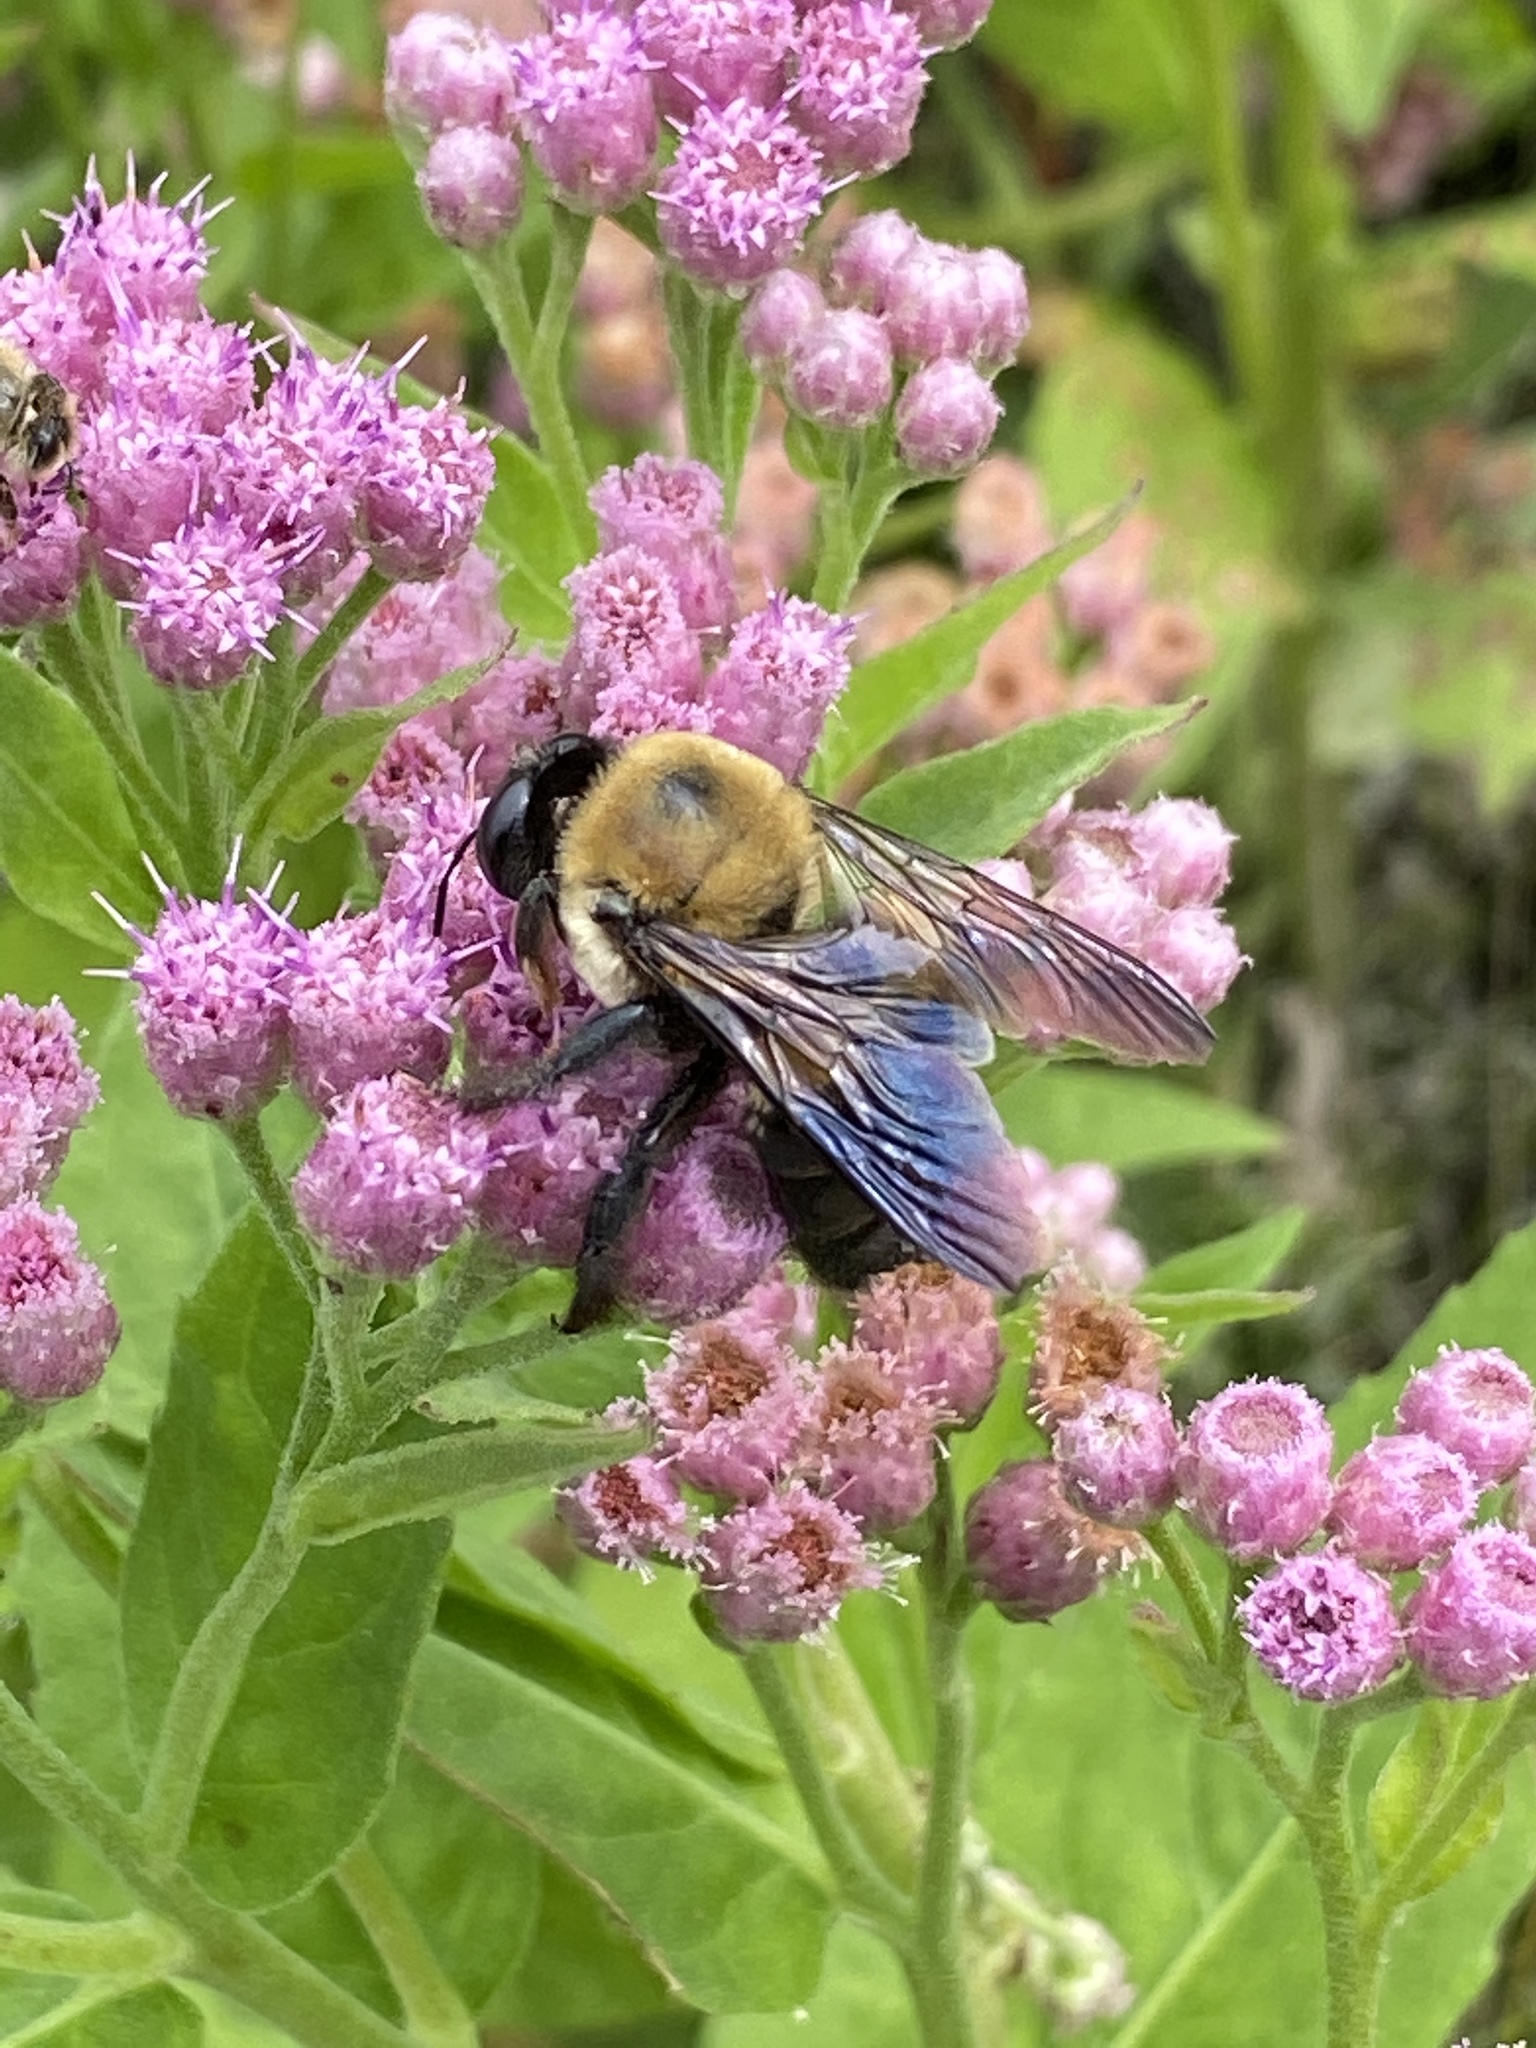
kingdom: Animalia
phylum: Arthropoda
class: Insecta
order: Hymenoptera
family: Apidae
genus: Xylocopa
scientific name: Xylocopa virginica
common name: Carpenter bee
